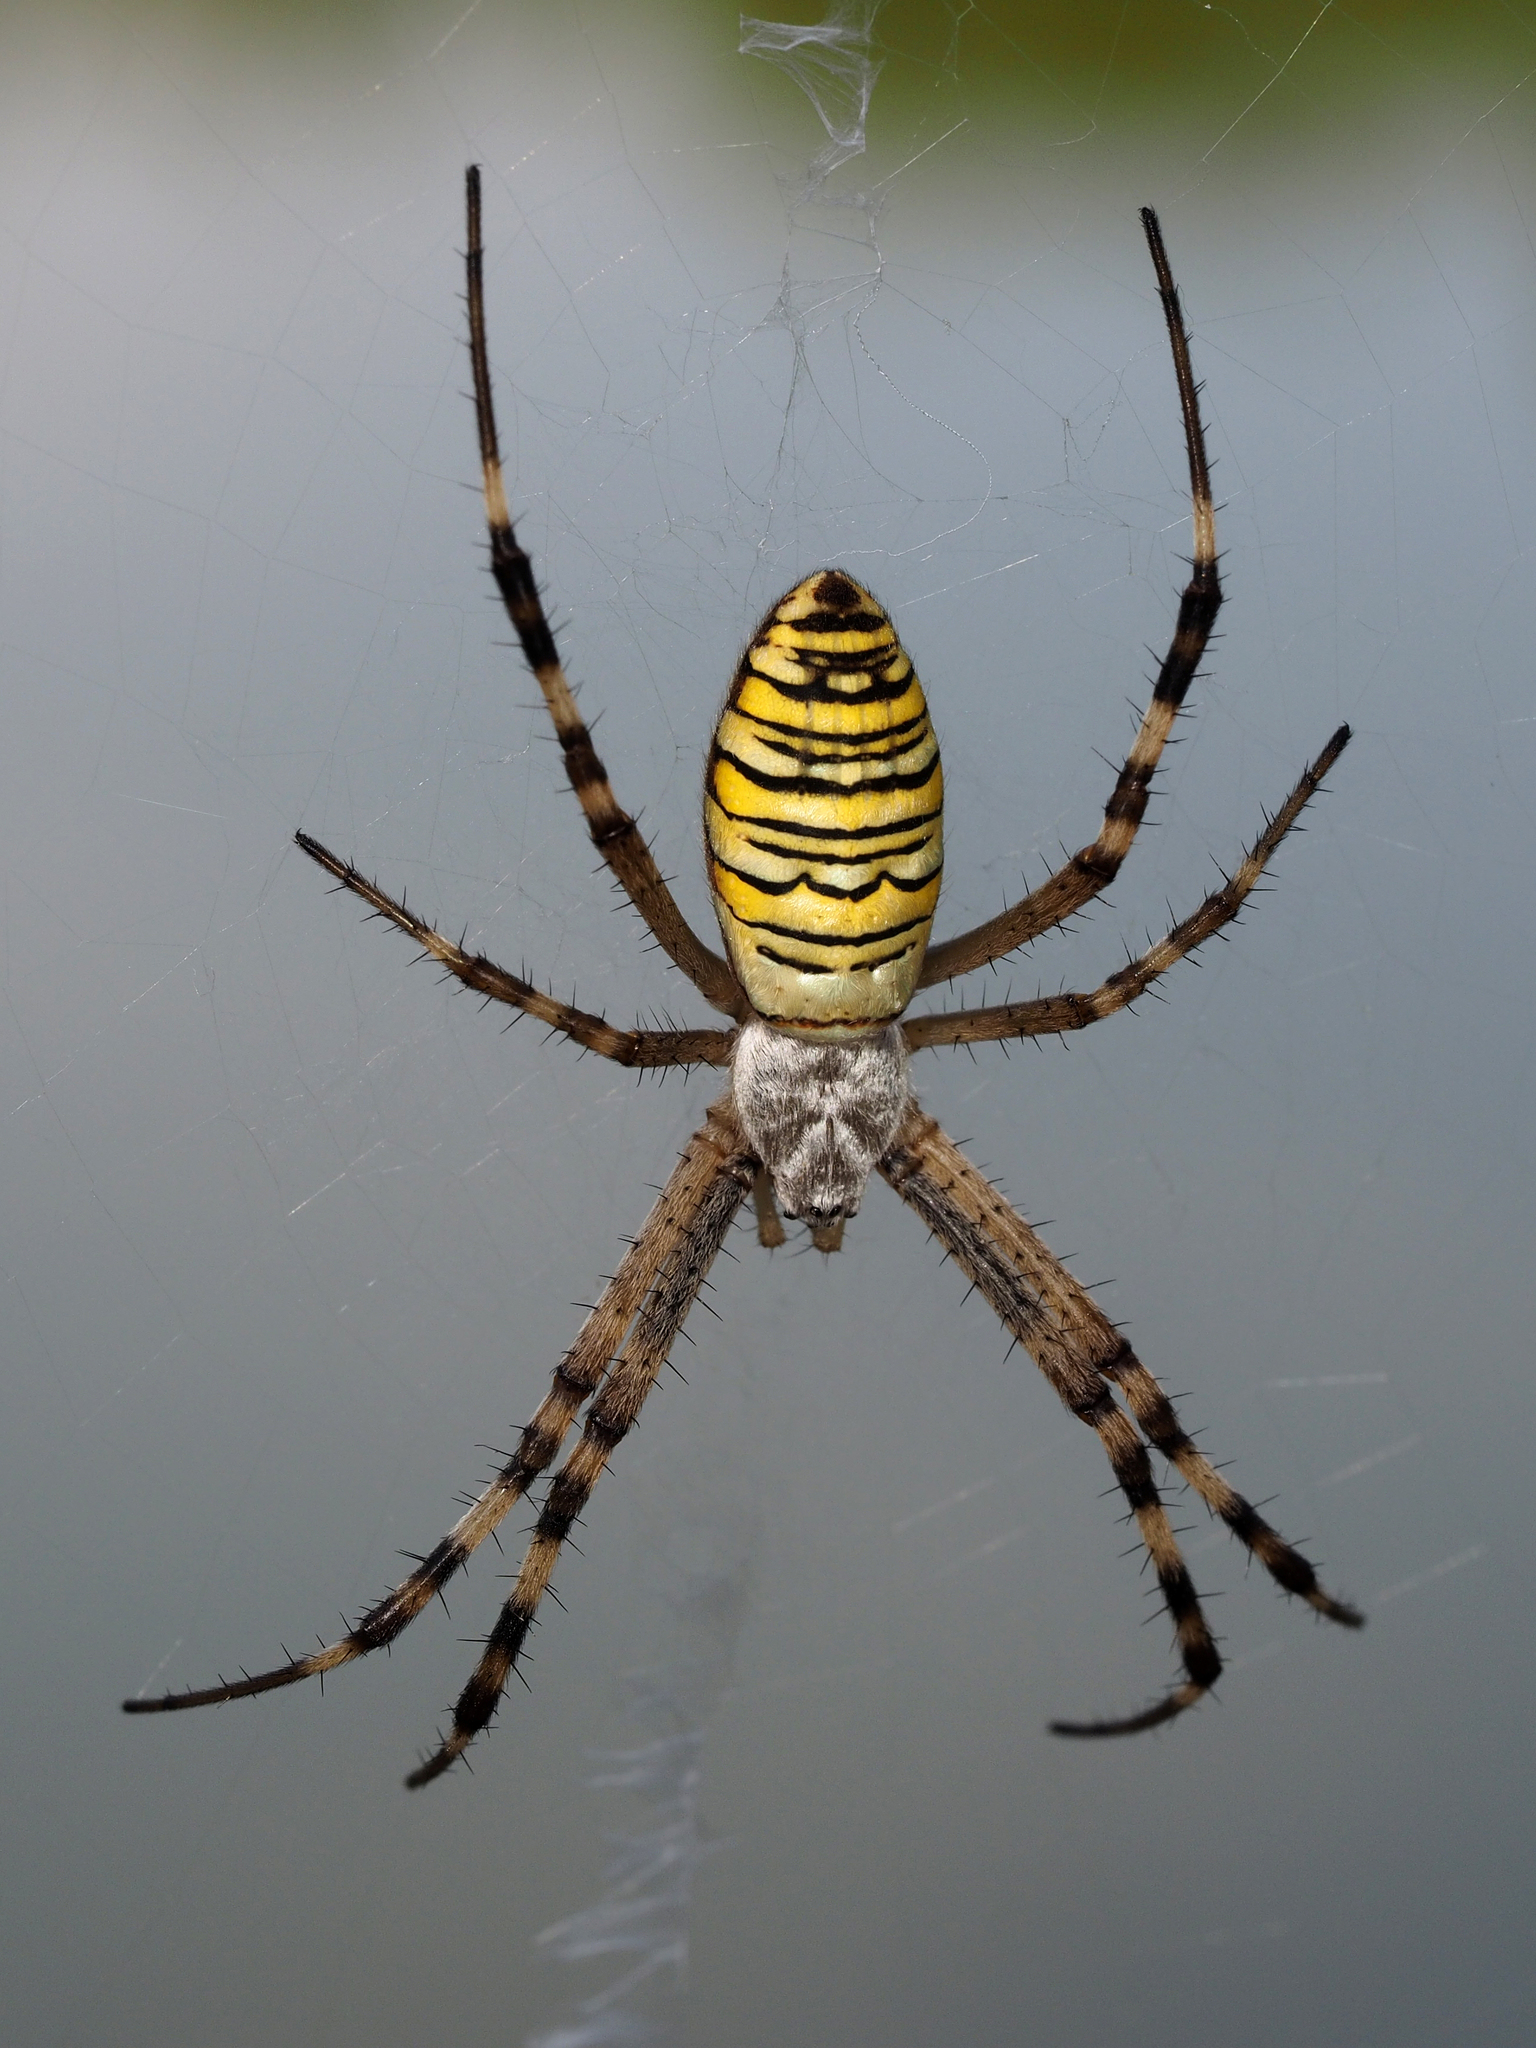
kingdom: Animalia
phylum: Arthropoda
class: Arachnida
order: Araneae
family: Araneidae
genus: Argiope
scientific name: Argiope bruennichi
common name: Wasp spider
